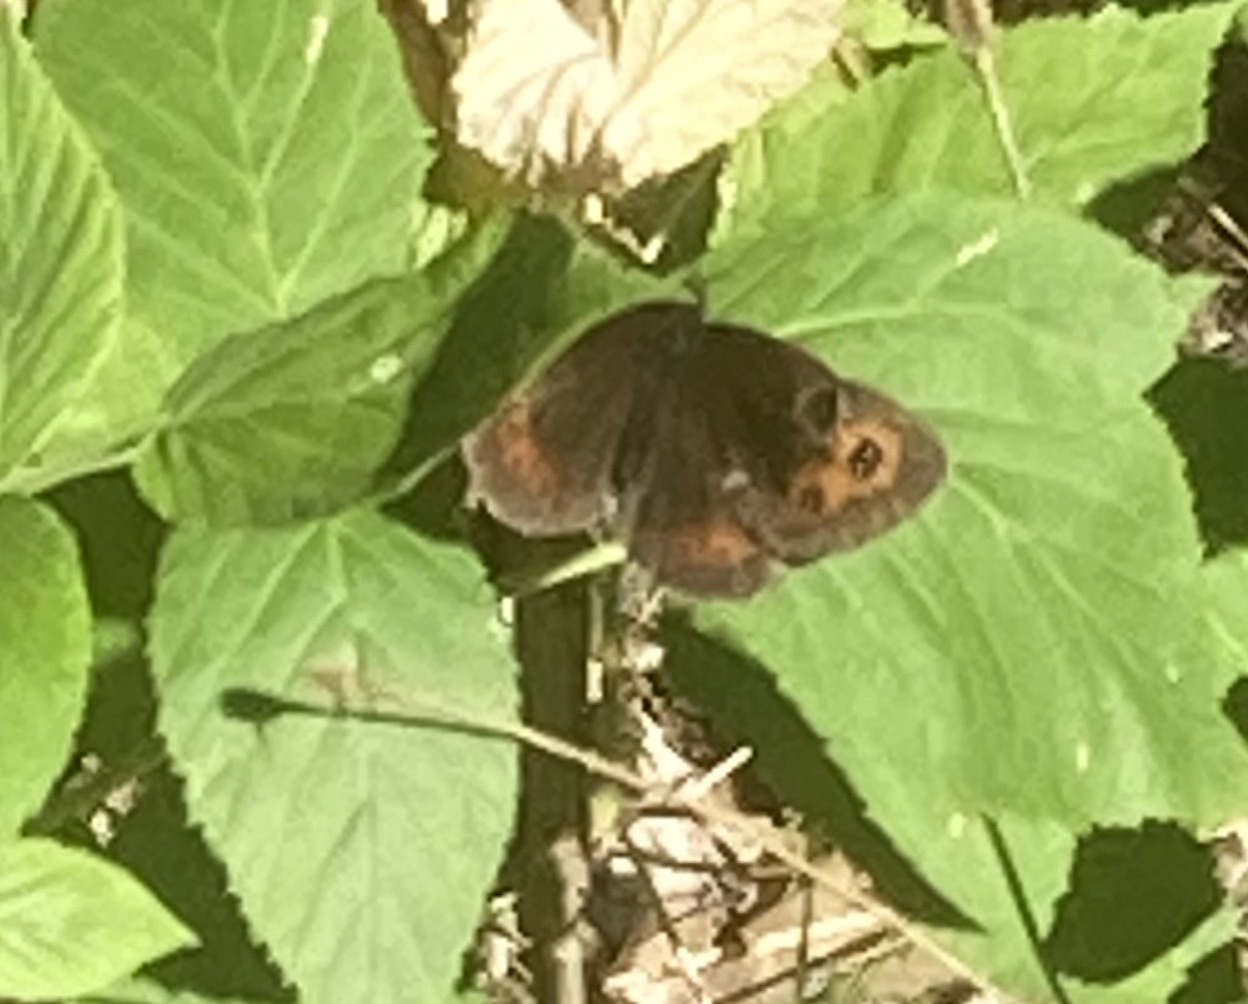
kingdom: Animalia
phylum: Arthropoda
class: Insecta
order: Lepidoptera
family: Nymphalidae
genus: Erebia
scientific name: Erebia aethiops
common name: Scotch argus
